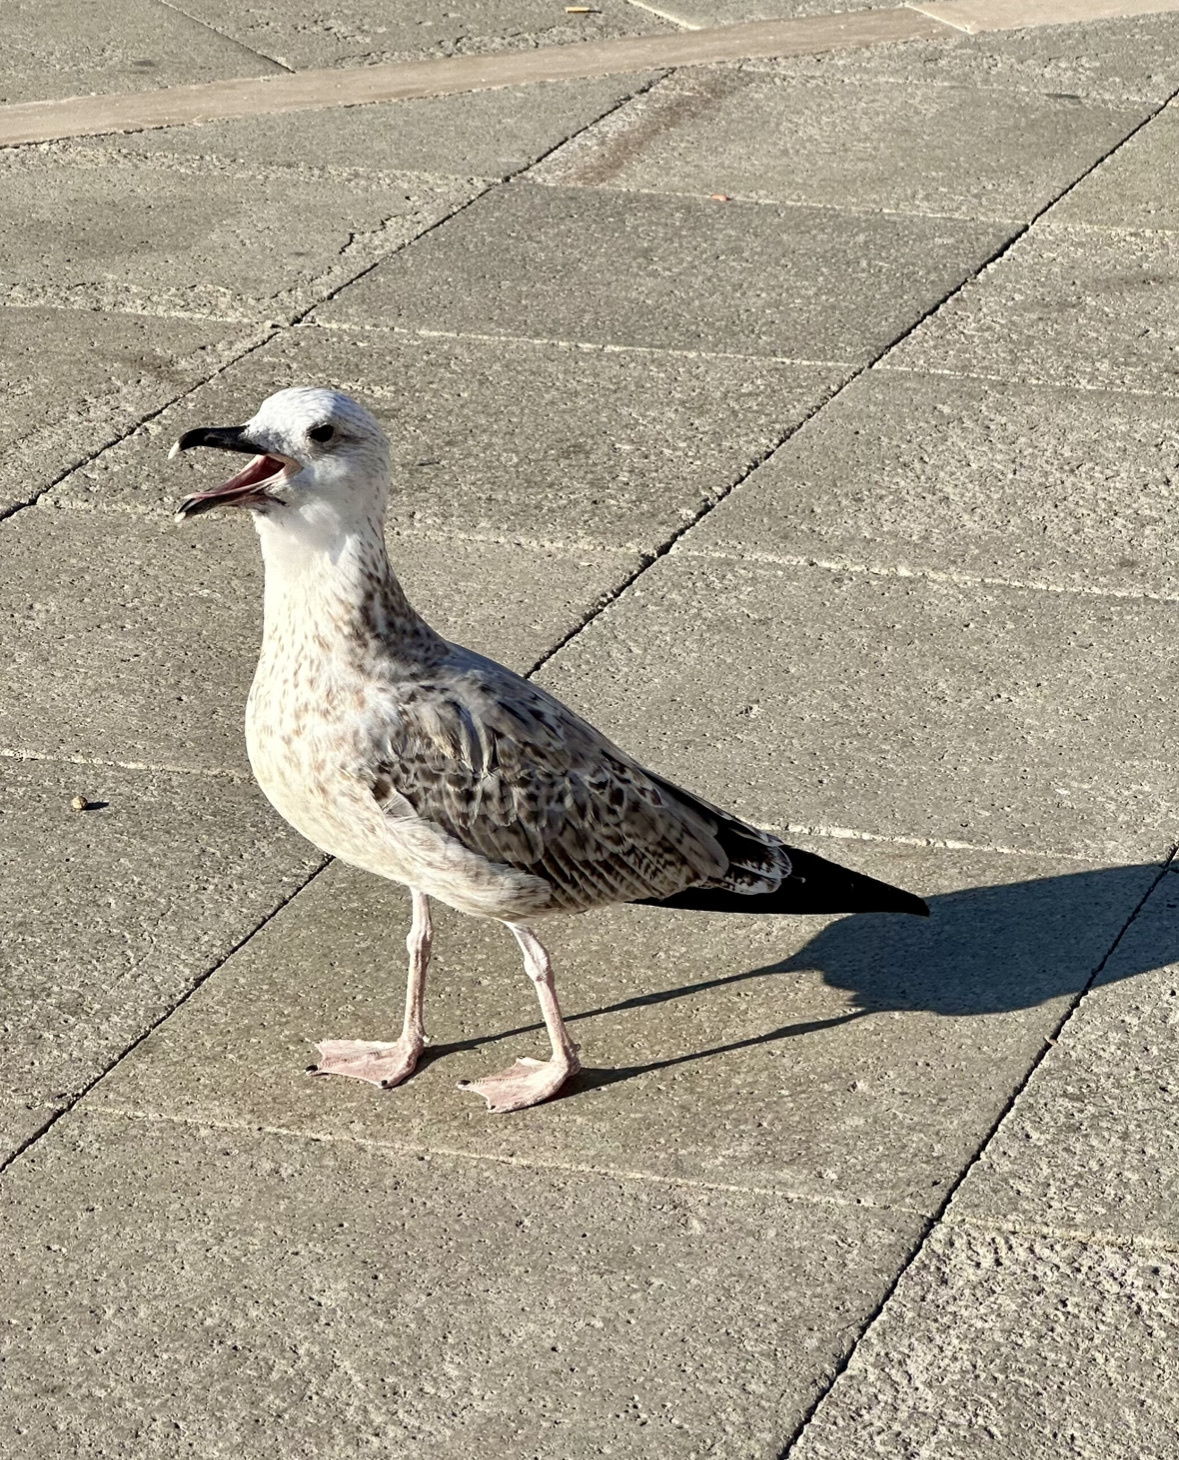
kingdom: Animalia
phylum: Chordata
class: Aves
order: Charadriiformes
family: Laridae
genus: Larus
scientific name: Larus michahellis
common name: Yellow-legged gull
